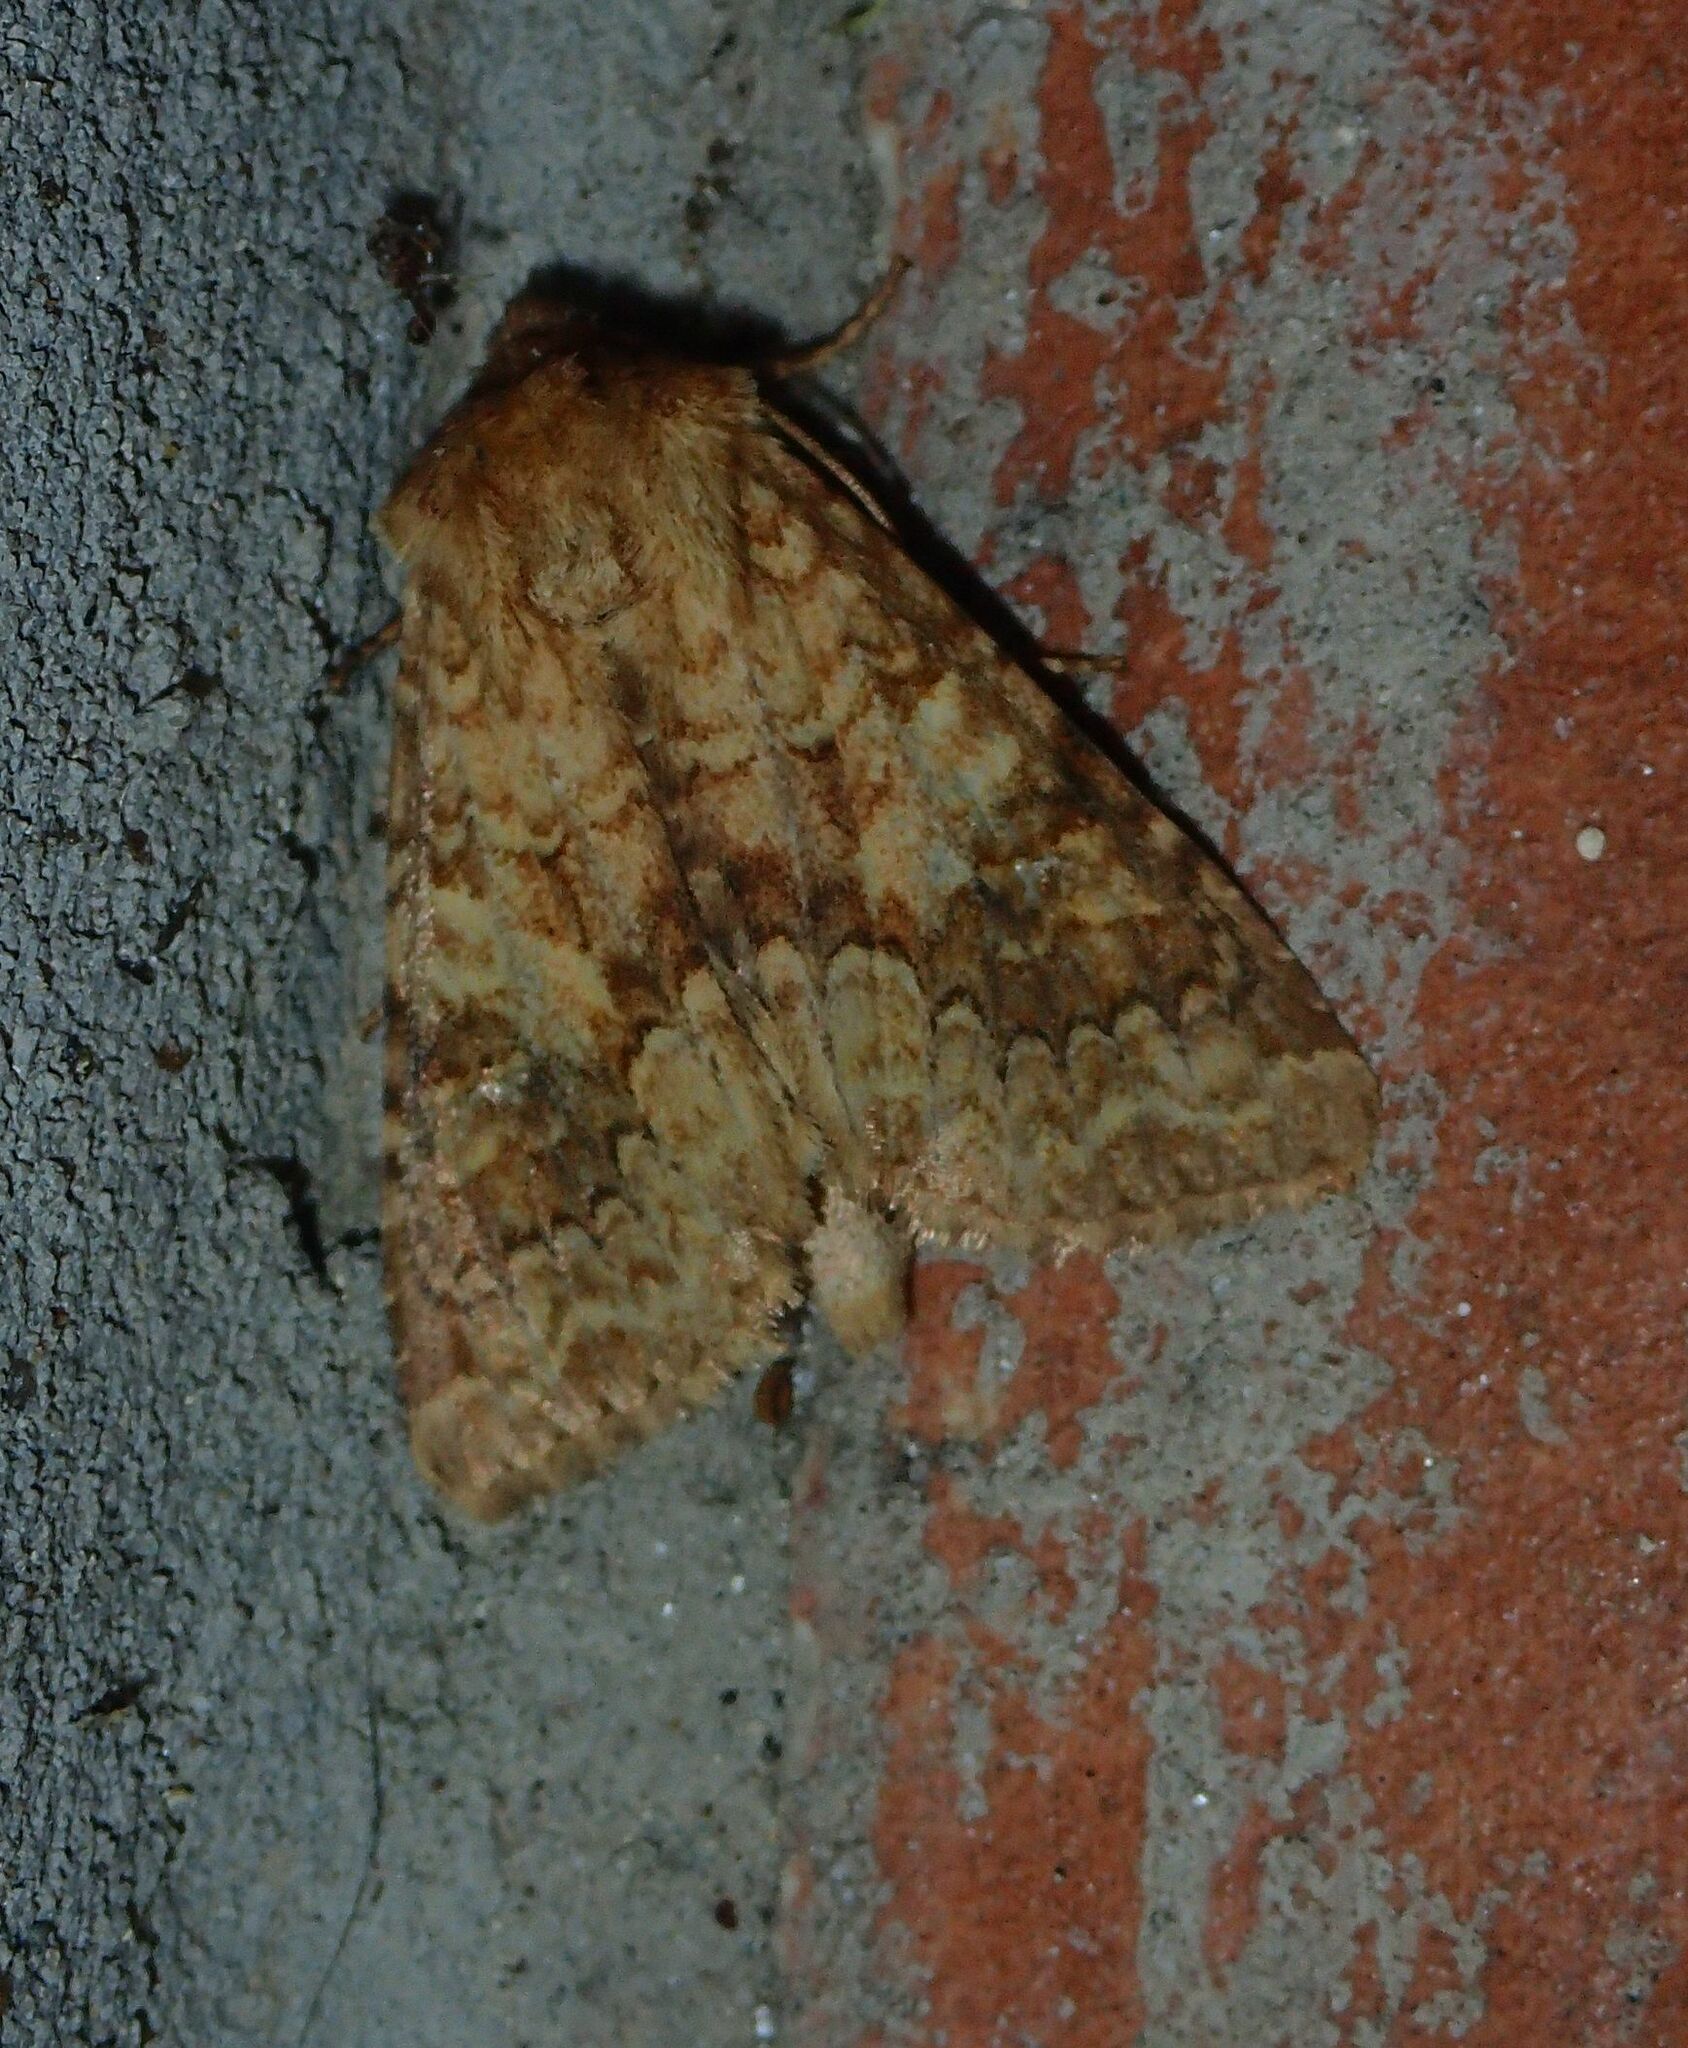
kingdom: Animalia
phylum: Arthropoda
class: Insecta
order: Lepidoptera
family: Noctuidae
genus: Conisania
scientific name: Conisania luteago
